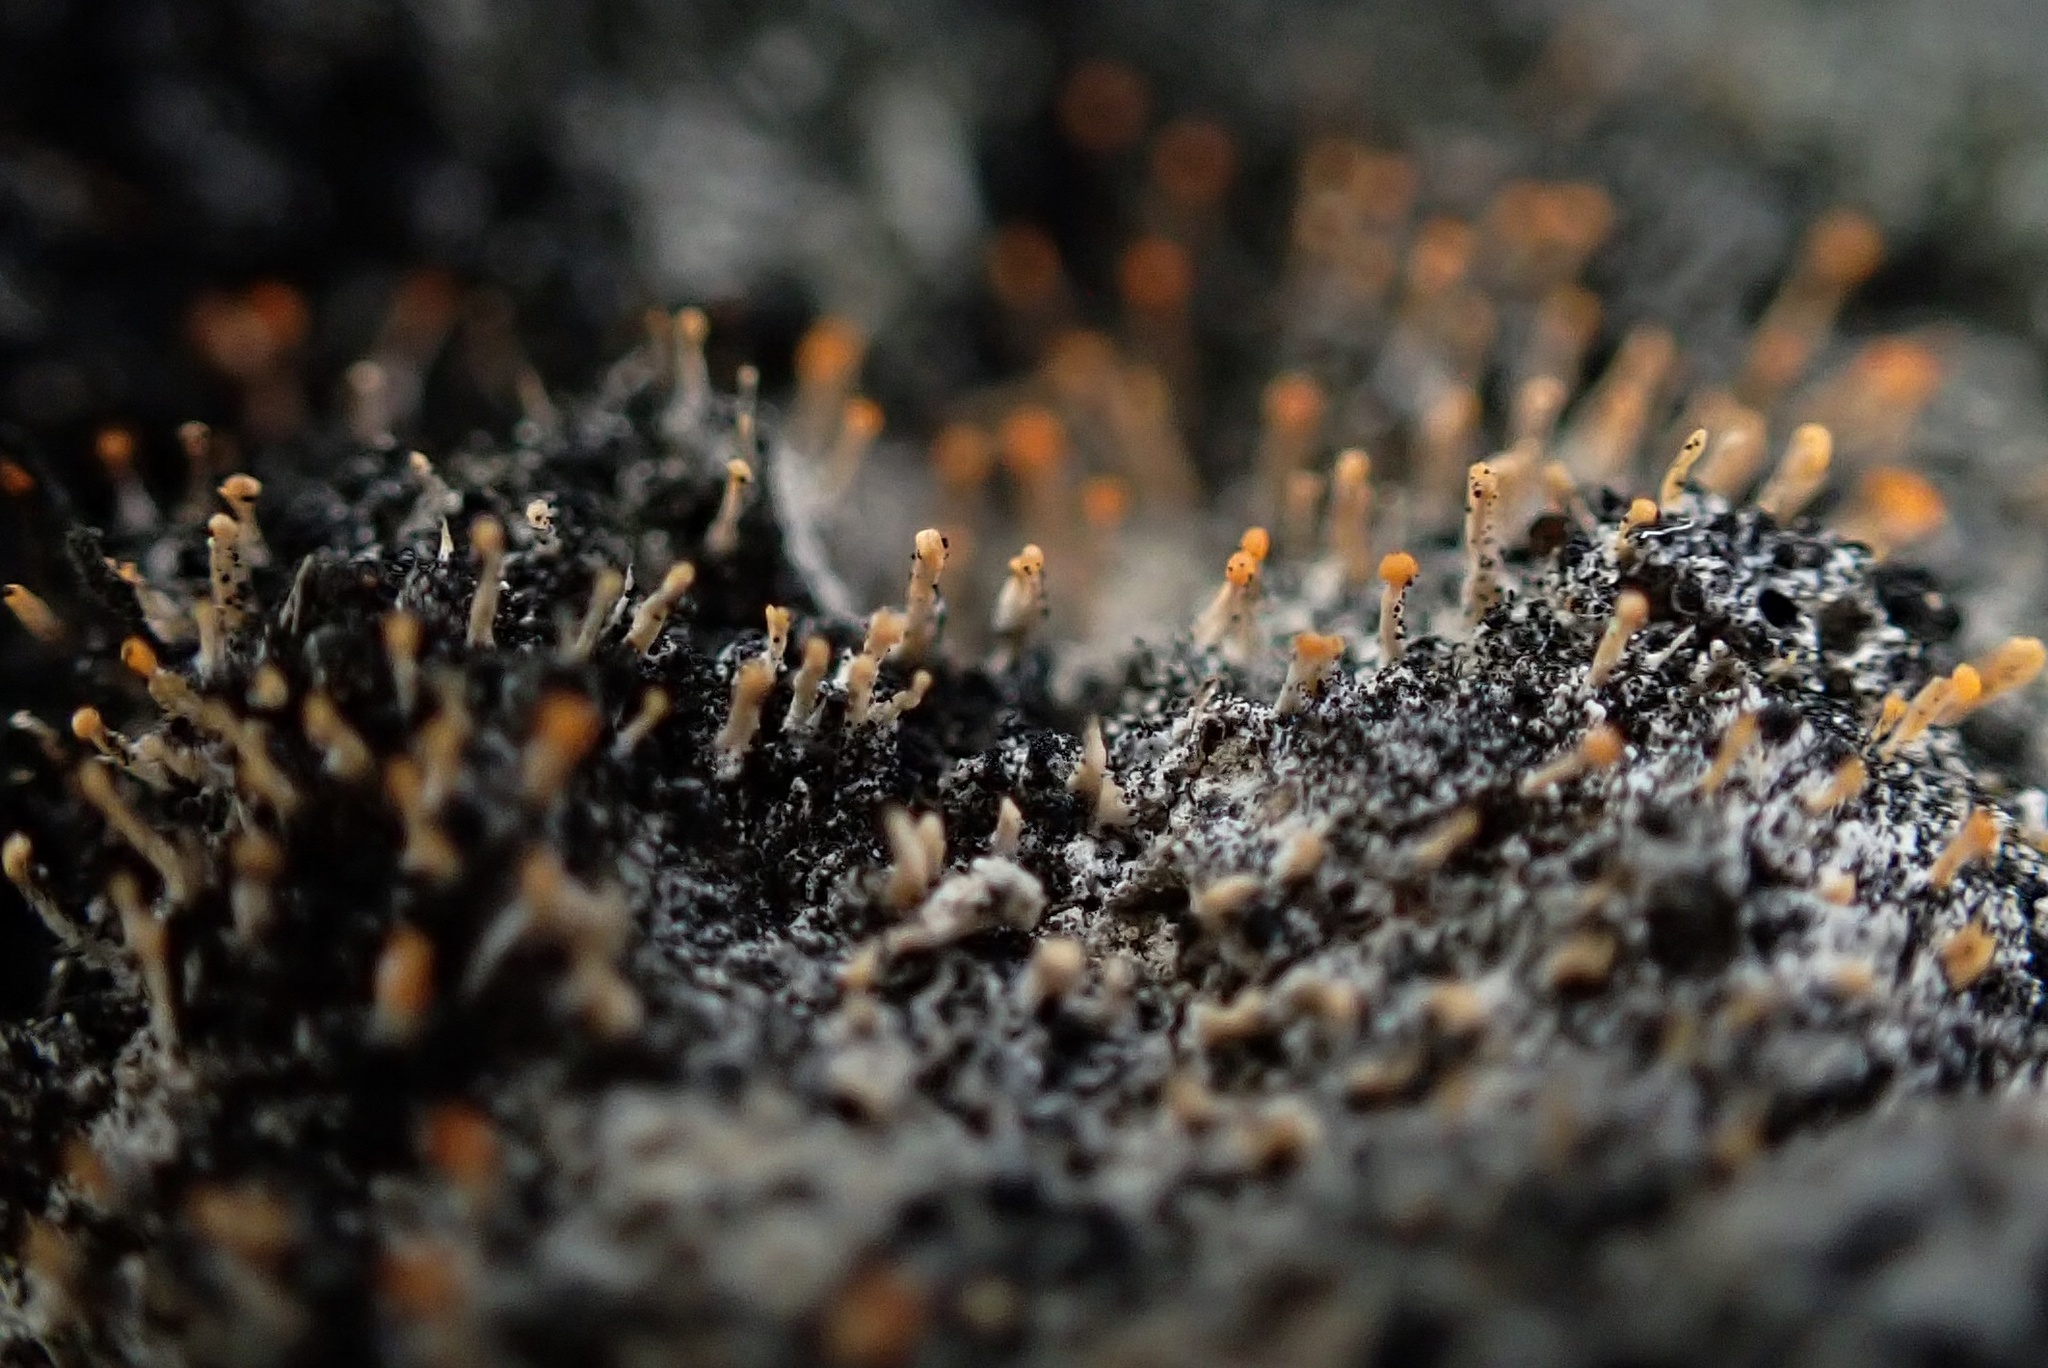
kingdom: Fungi
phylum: Ascomycota
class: Sordariomycetes
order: Hypocreales
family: Myrotheciomycetaceae
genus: Emericellopsis
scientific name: Emericellopsis
